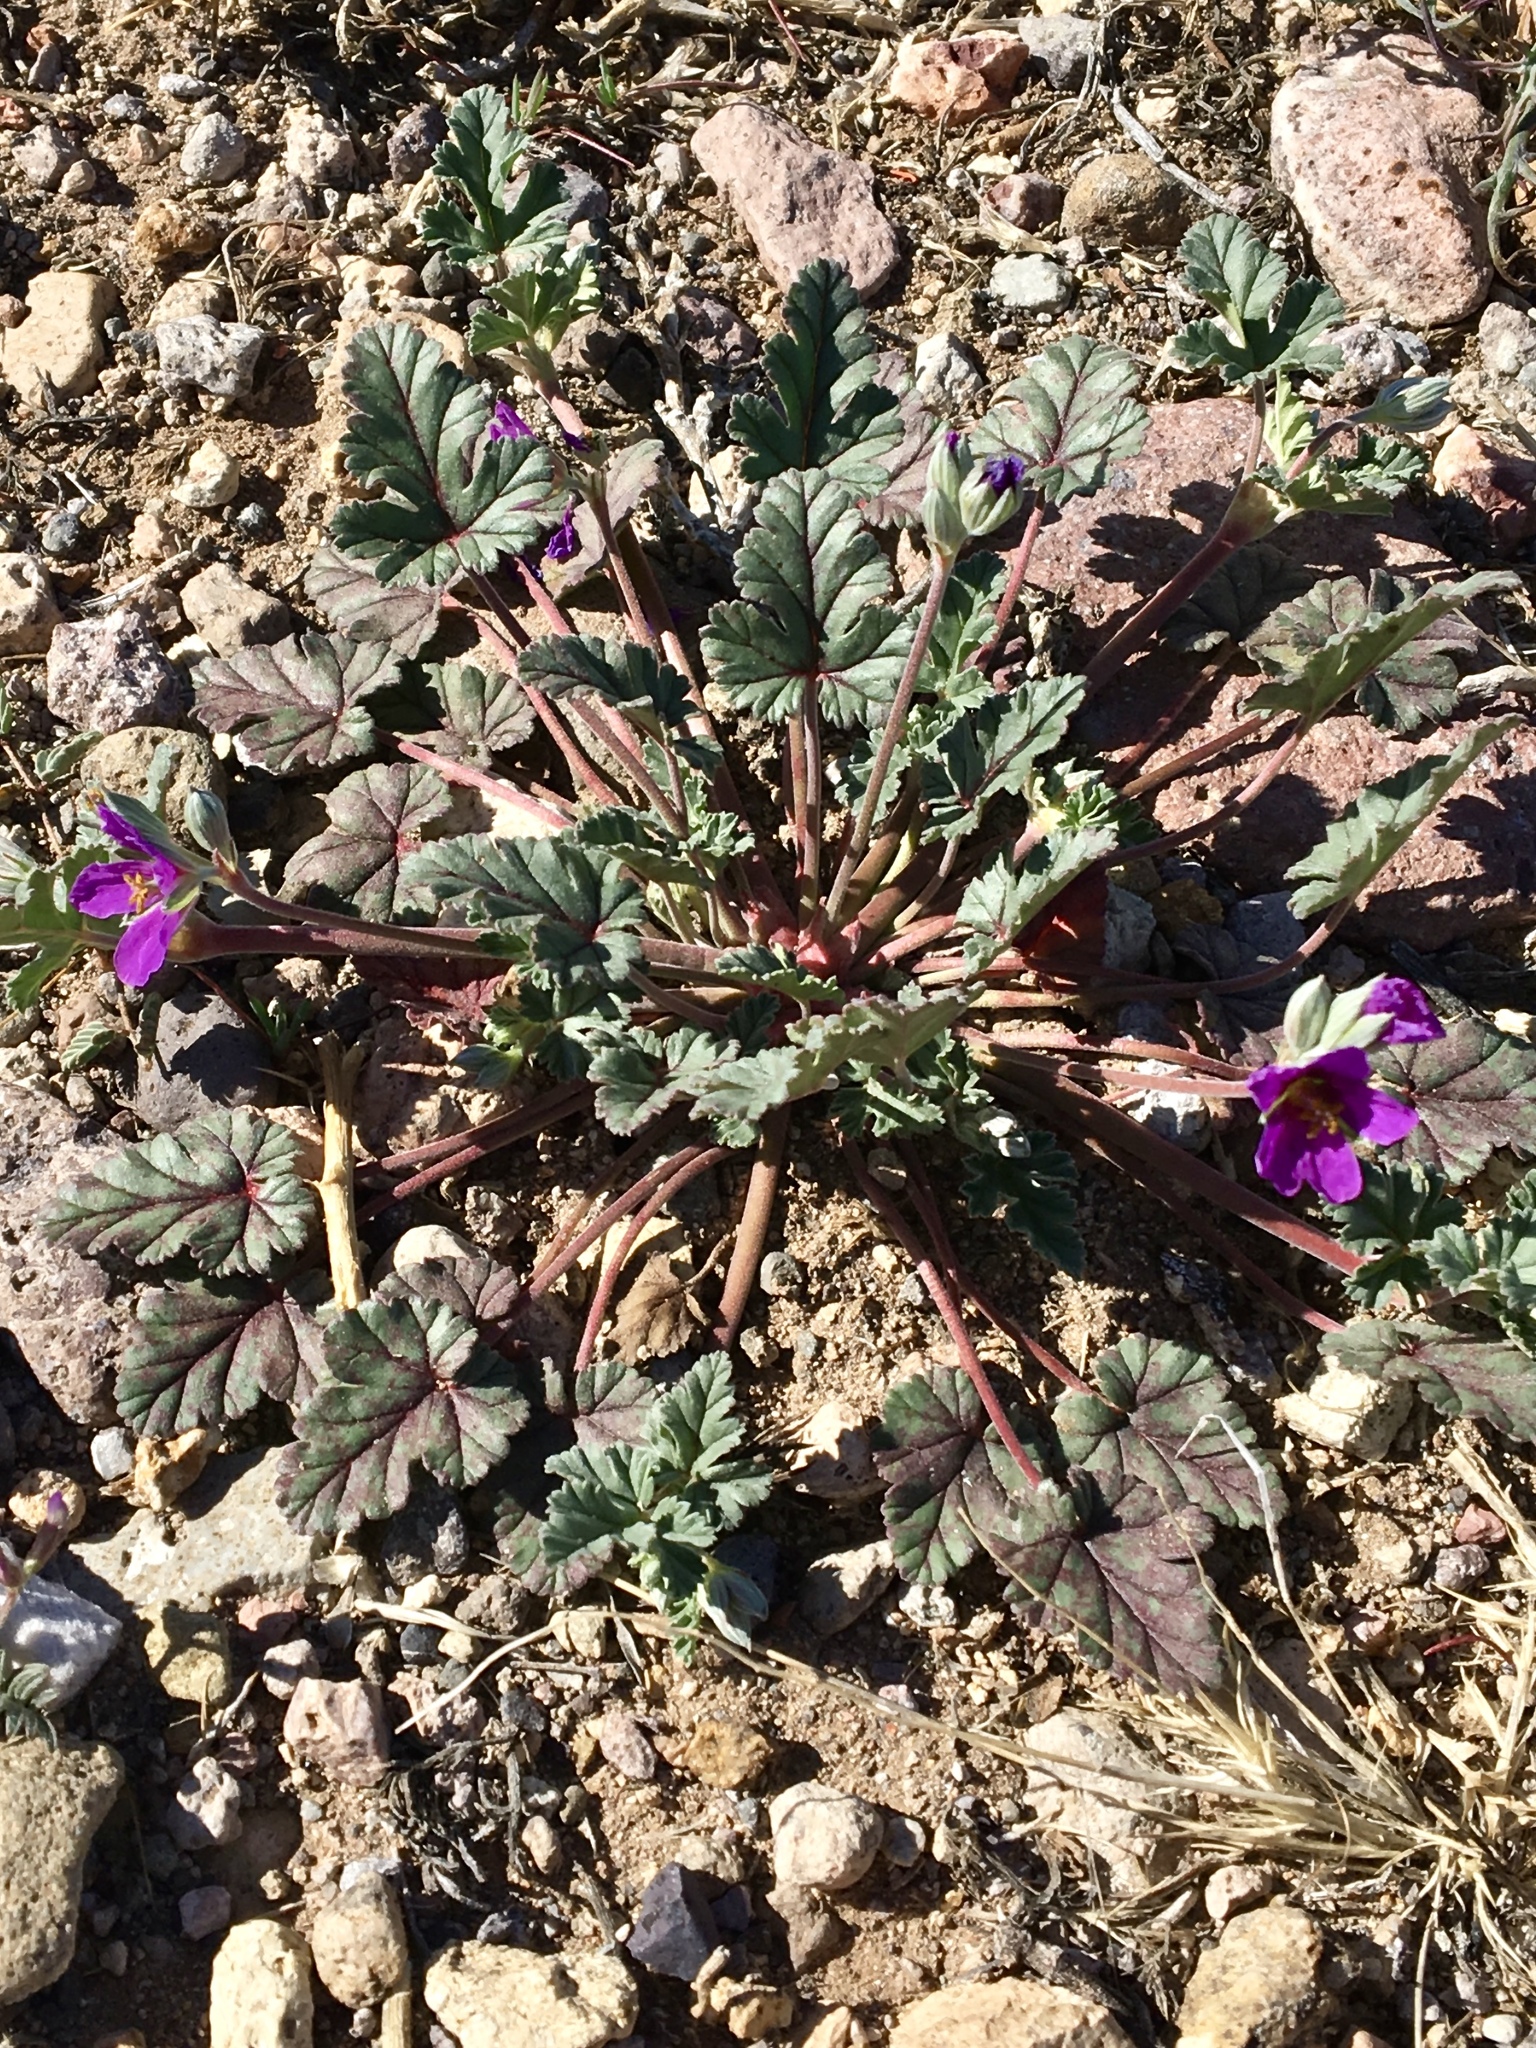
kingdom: Plantae
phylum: Tracheophyta
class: Magnoliopsida
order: Geraniales
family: Geraniaceae
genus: Erodium
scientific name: Erodium texanum
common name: Texas stork's-bill
